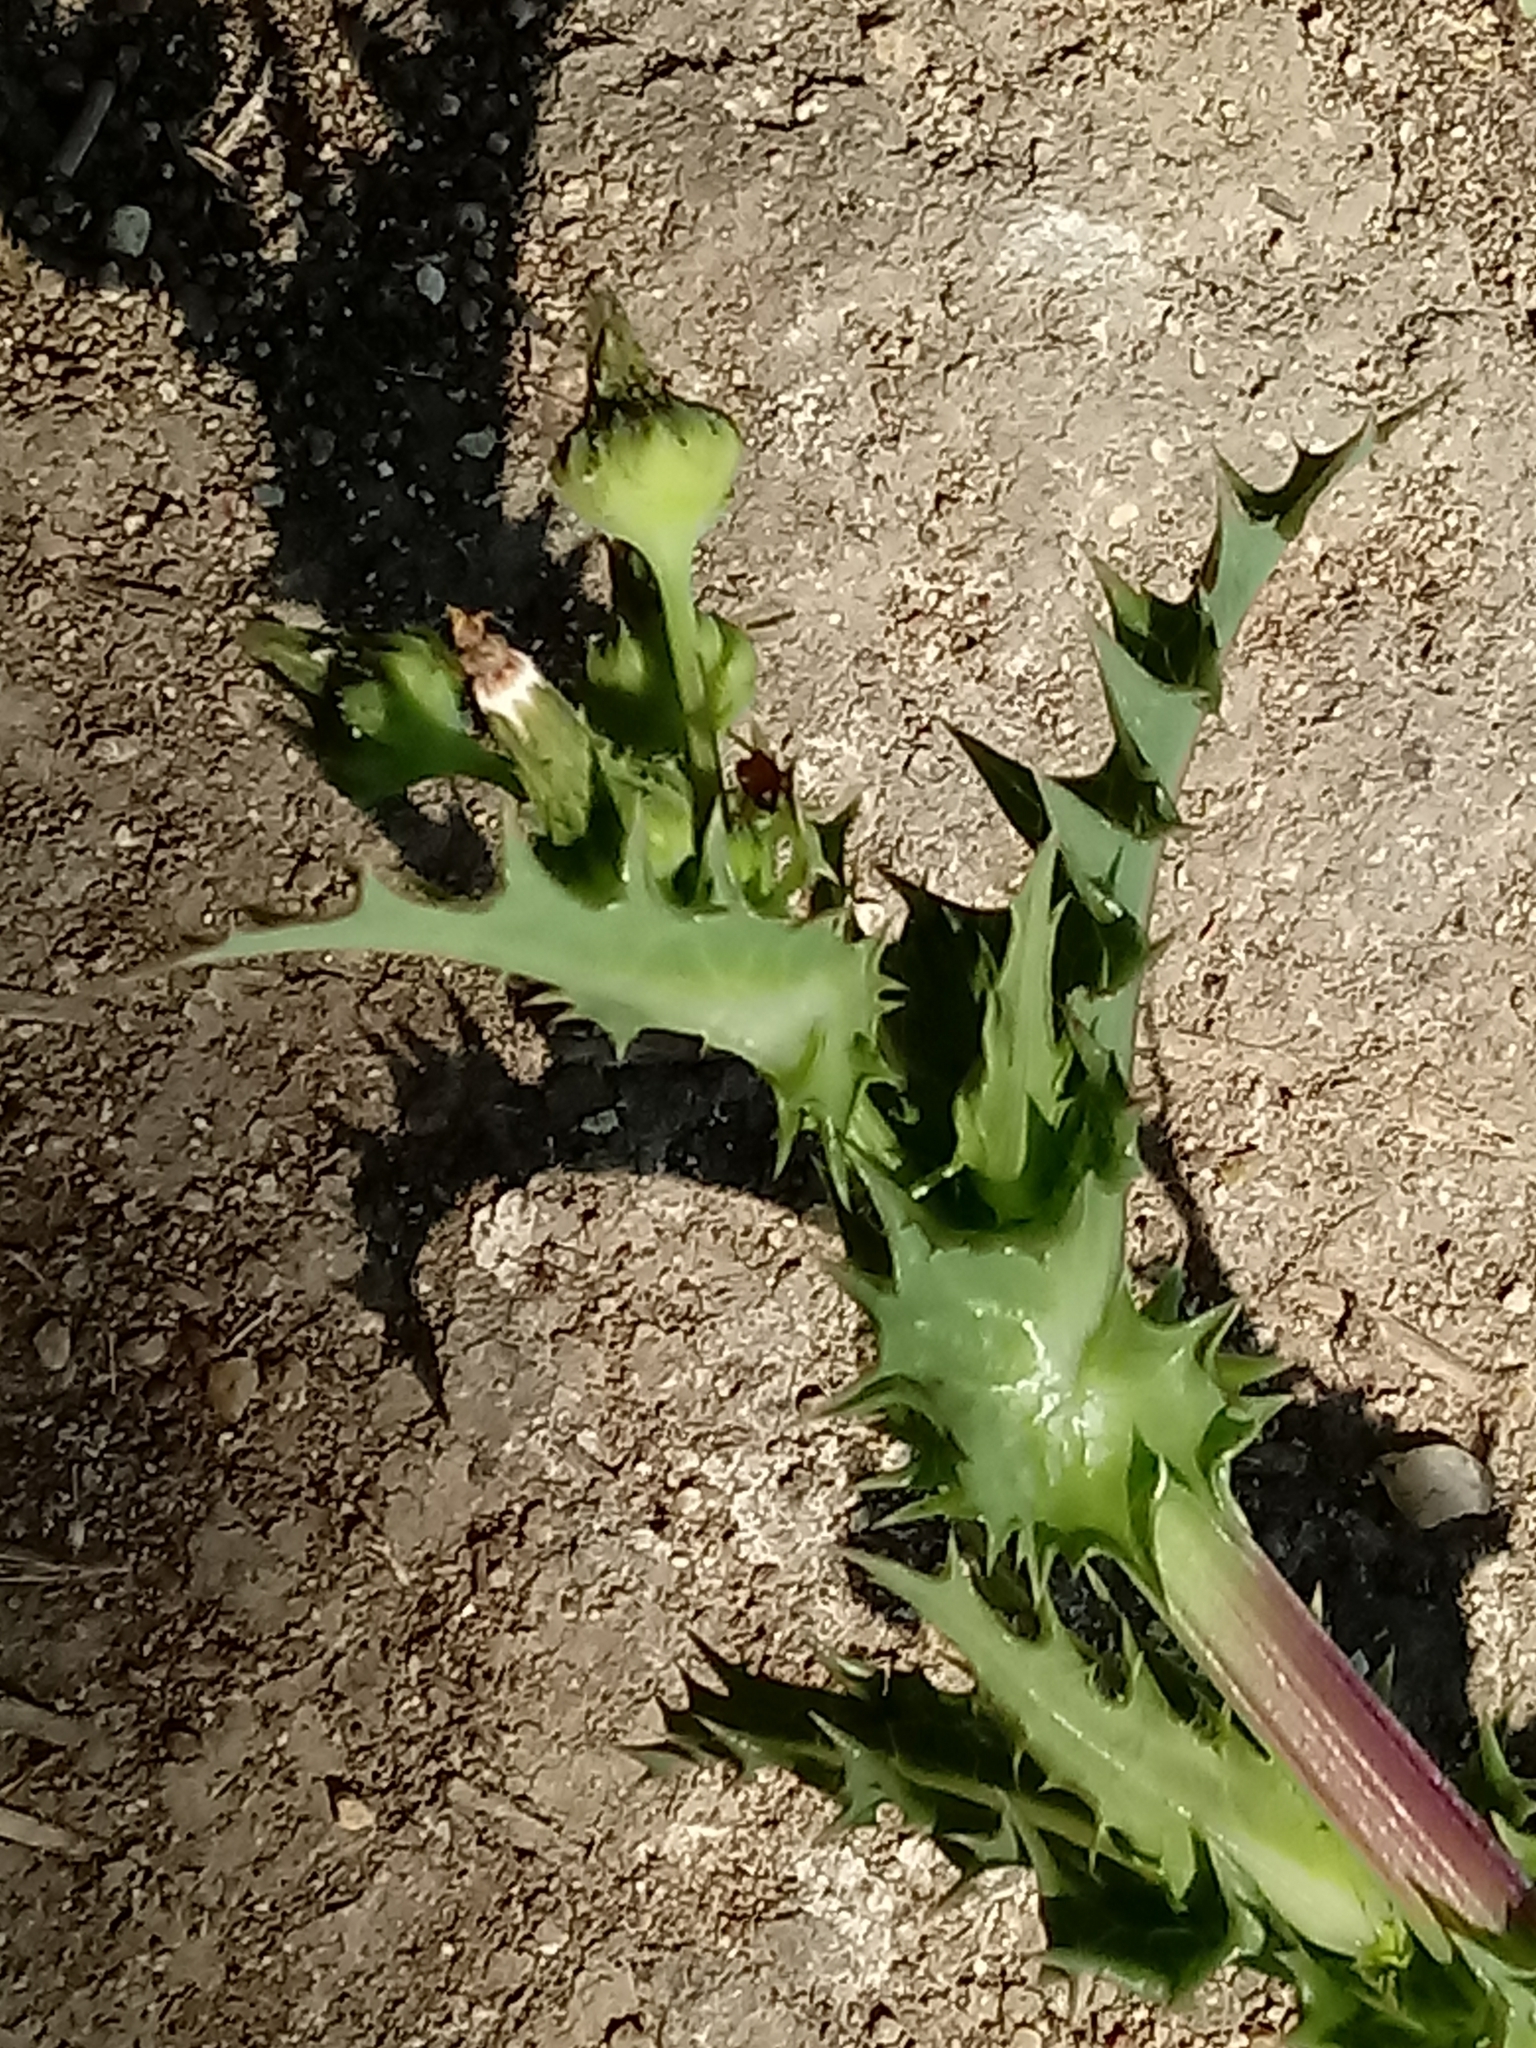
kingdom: Plantae
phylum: Tracheophyta
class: Magnoliopsida
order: Asterales
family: Asteraceae
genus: Sonchus
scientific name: Sonchus asper
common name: Prickly sow-thistle
